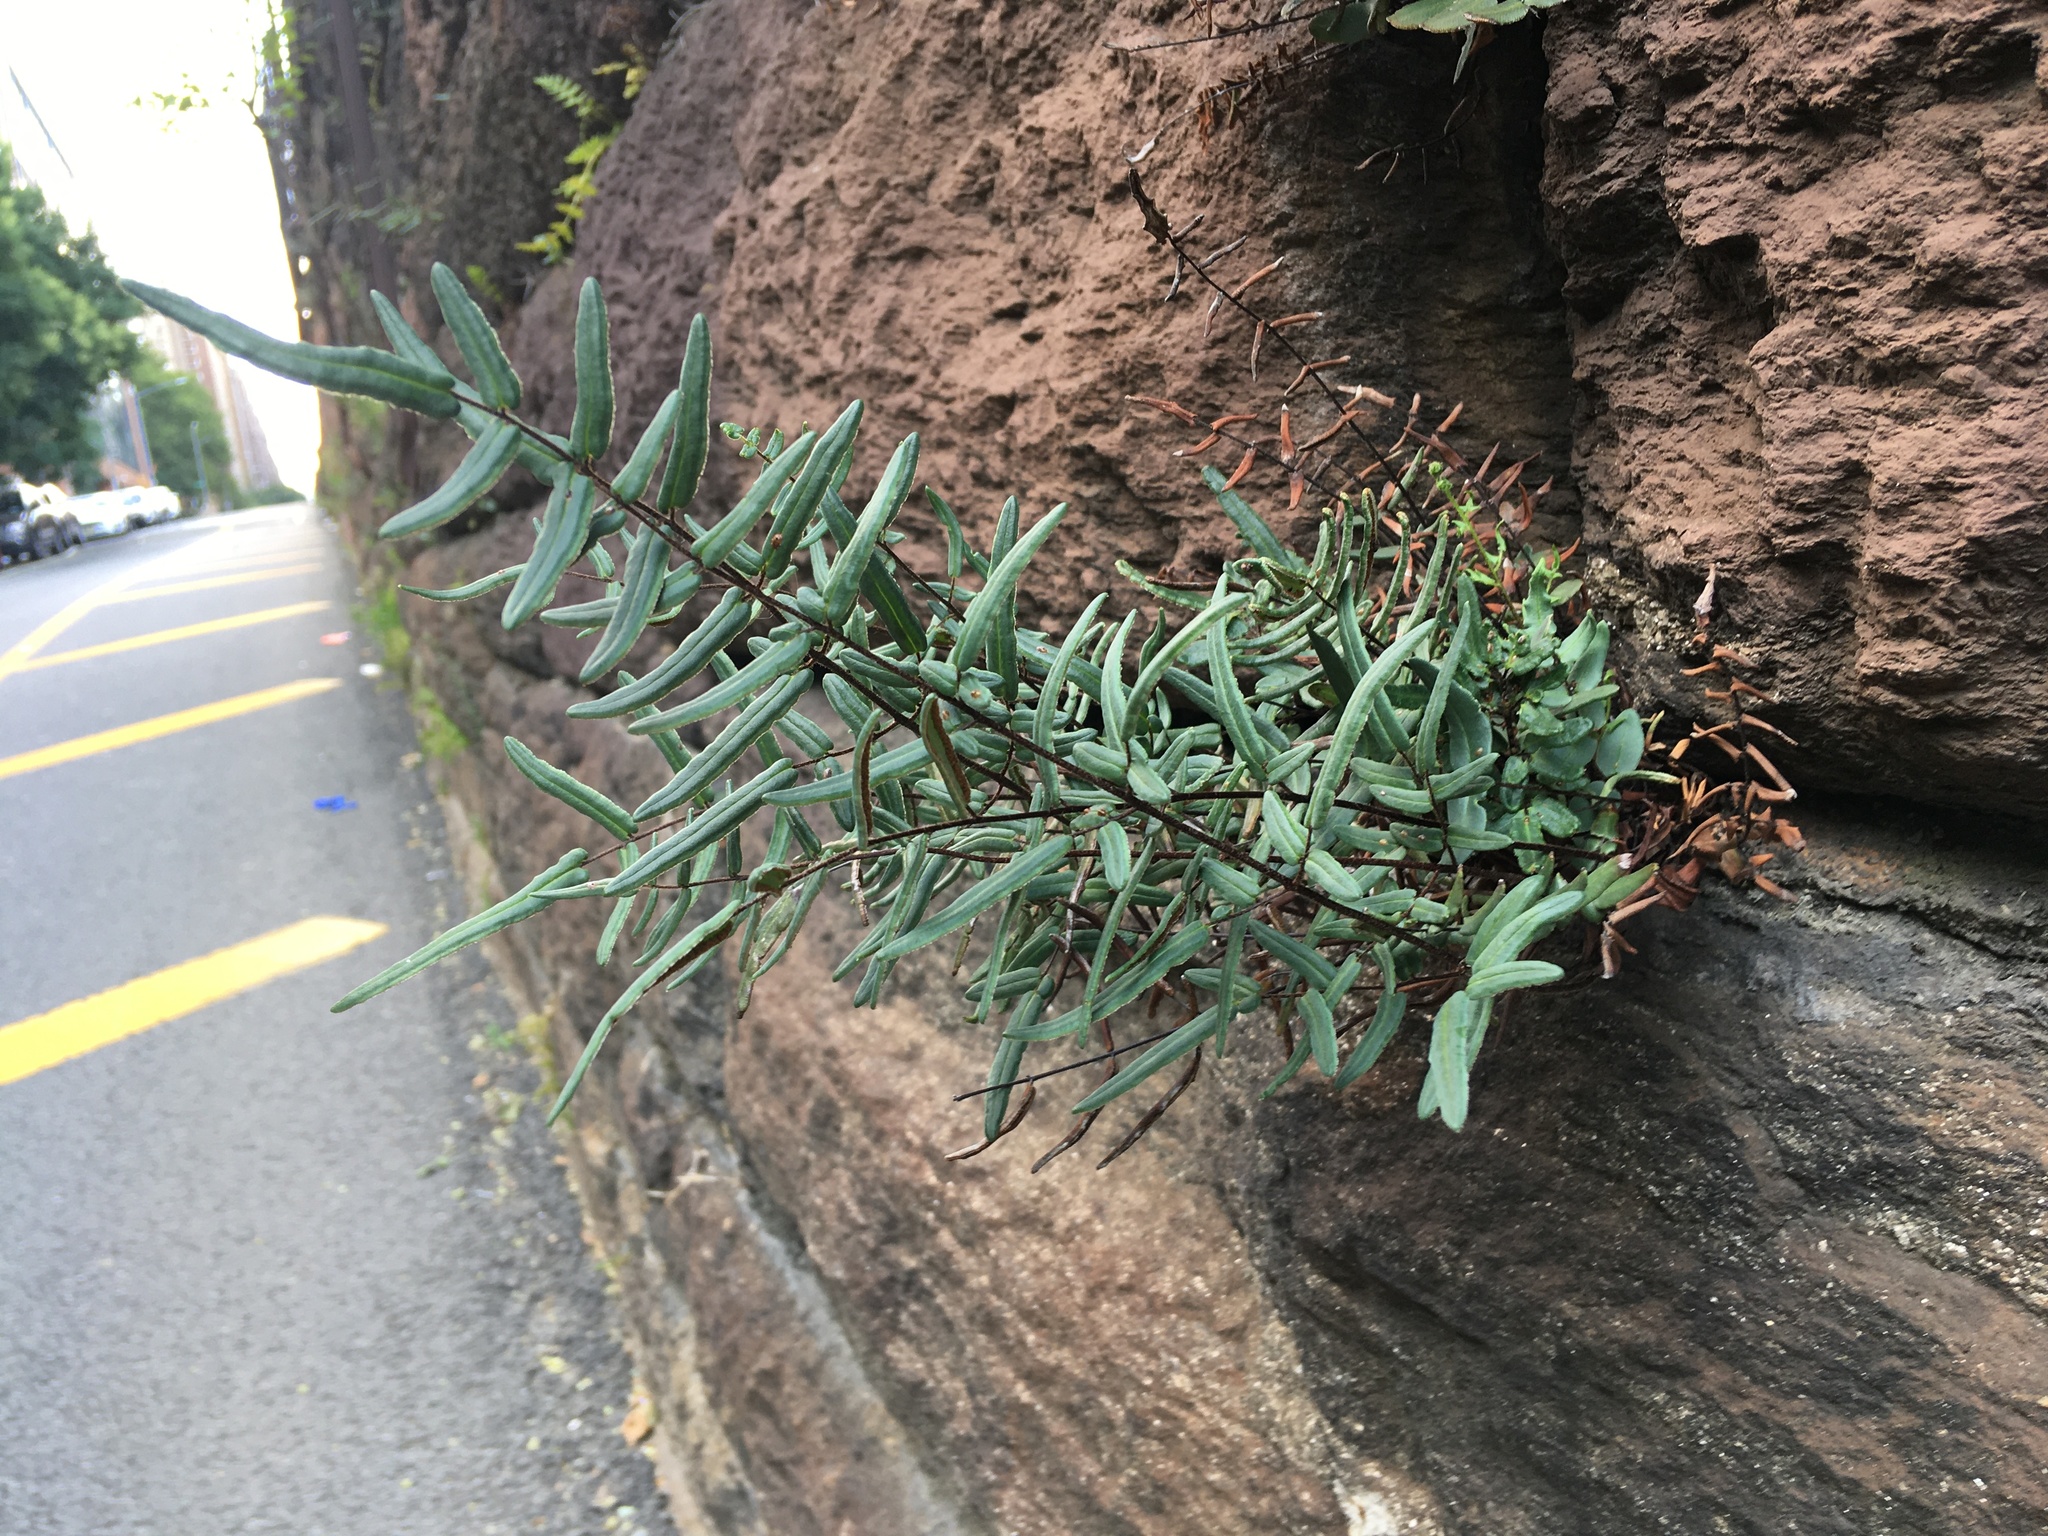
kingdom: Plantae
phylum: Tracheophyta
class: Polypodiopsida
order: Polypodiales
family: Pteridaceae
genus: Pellaea
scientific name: Pellaea atropurpurea
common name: Hairy cliffbrake
